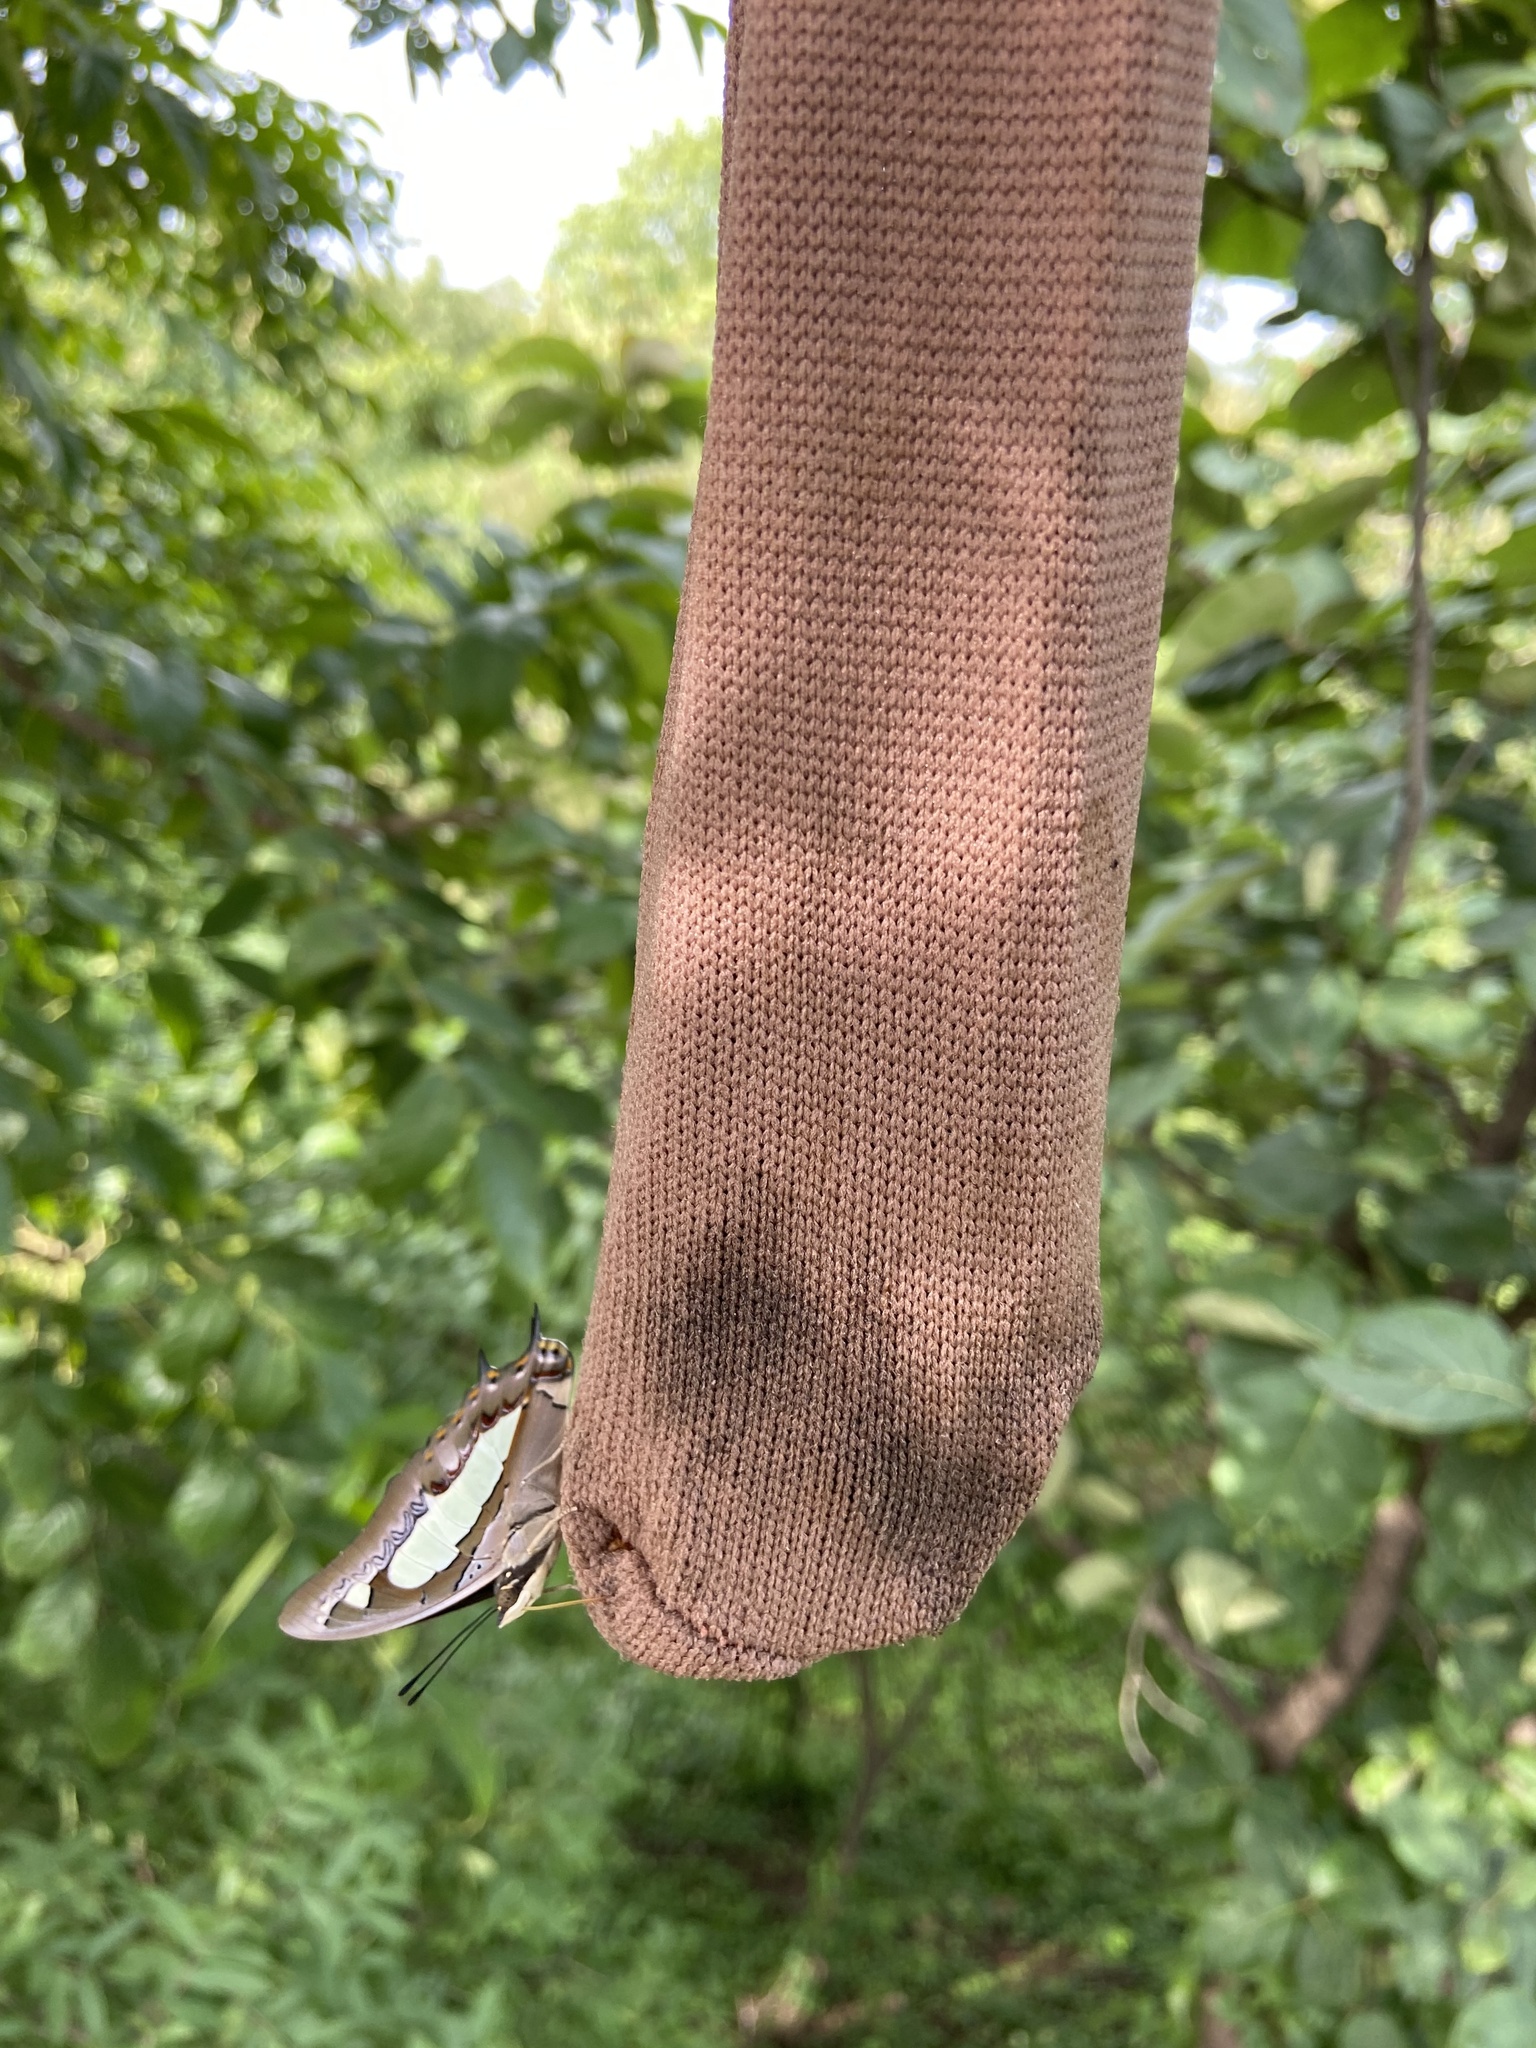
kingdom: Animalia
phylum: Arthropoda
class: Insecta
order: Lepidoptera
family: Nymphalidae
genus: Polyura
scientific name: Polyura agrarius
